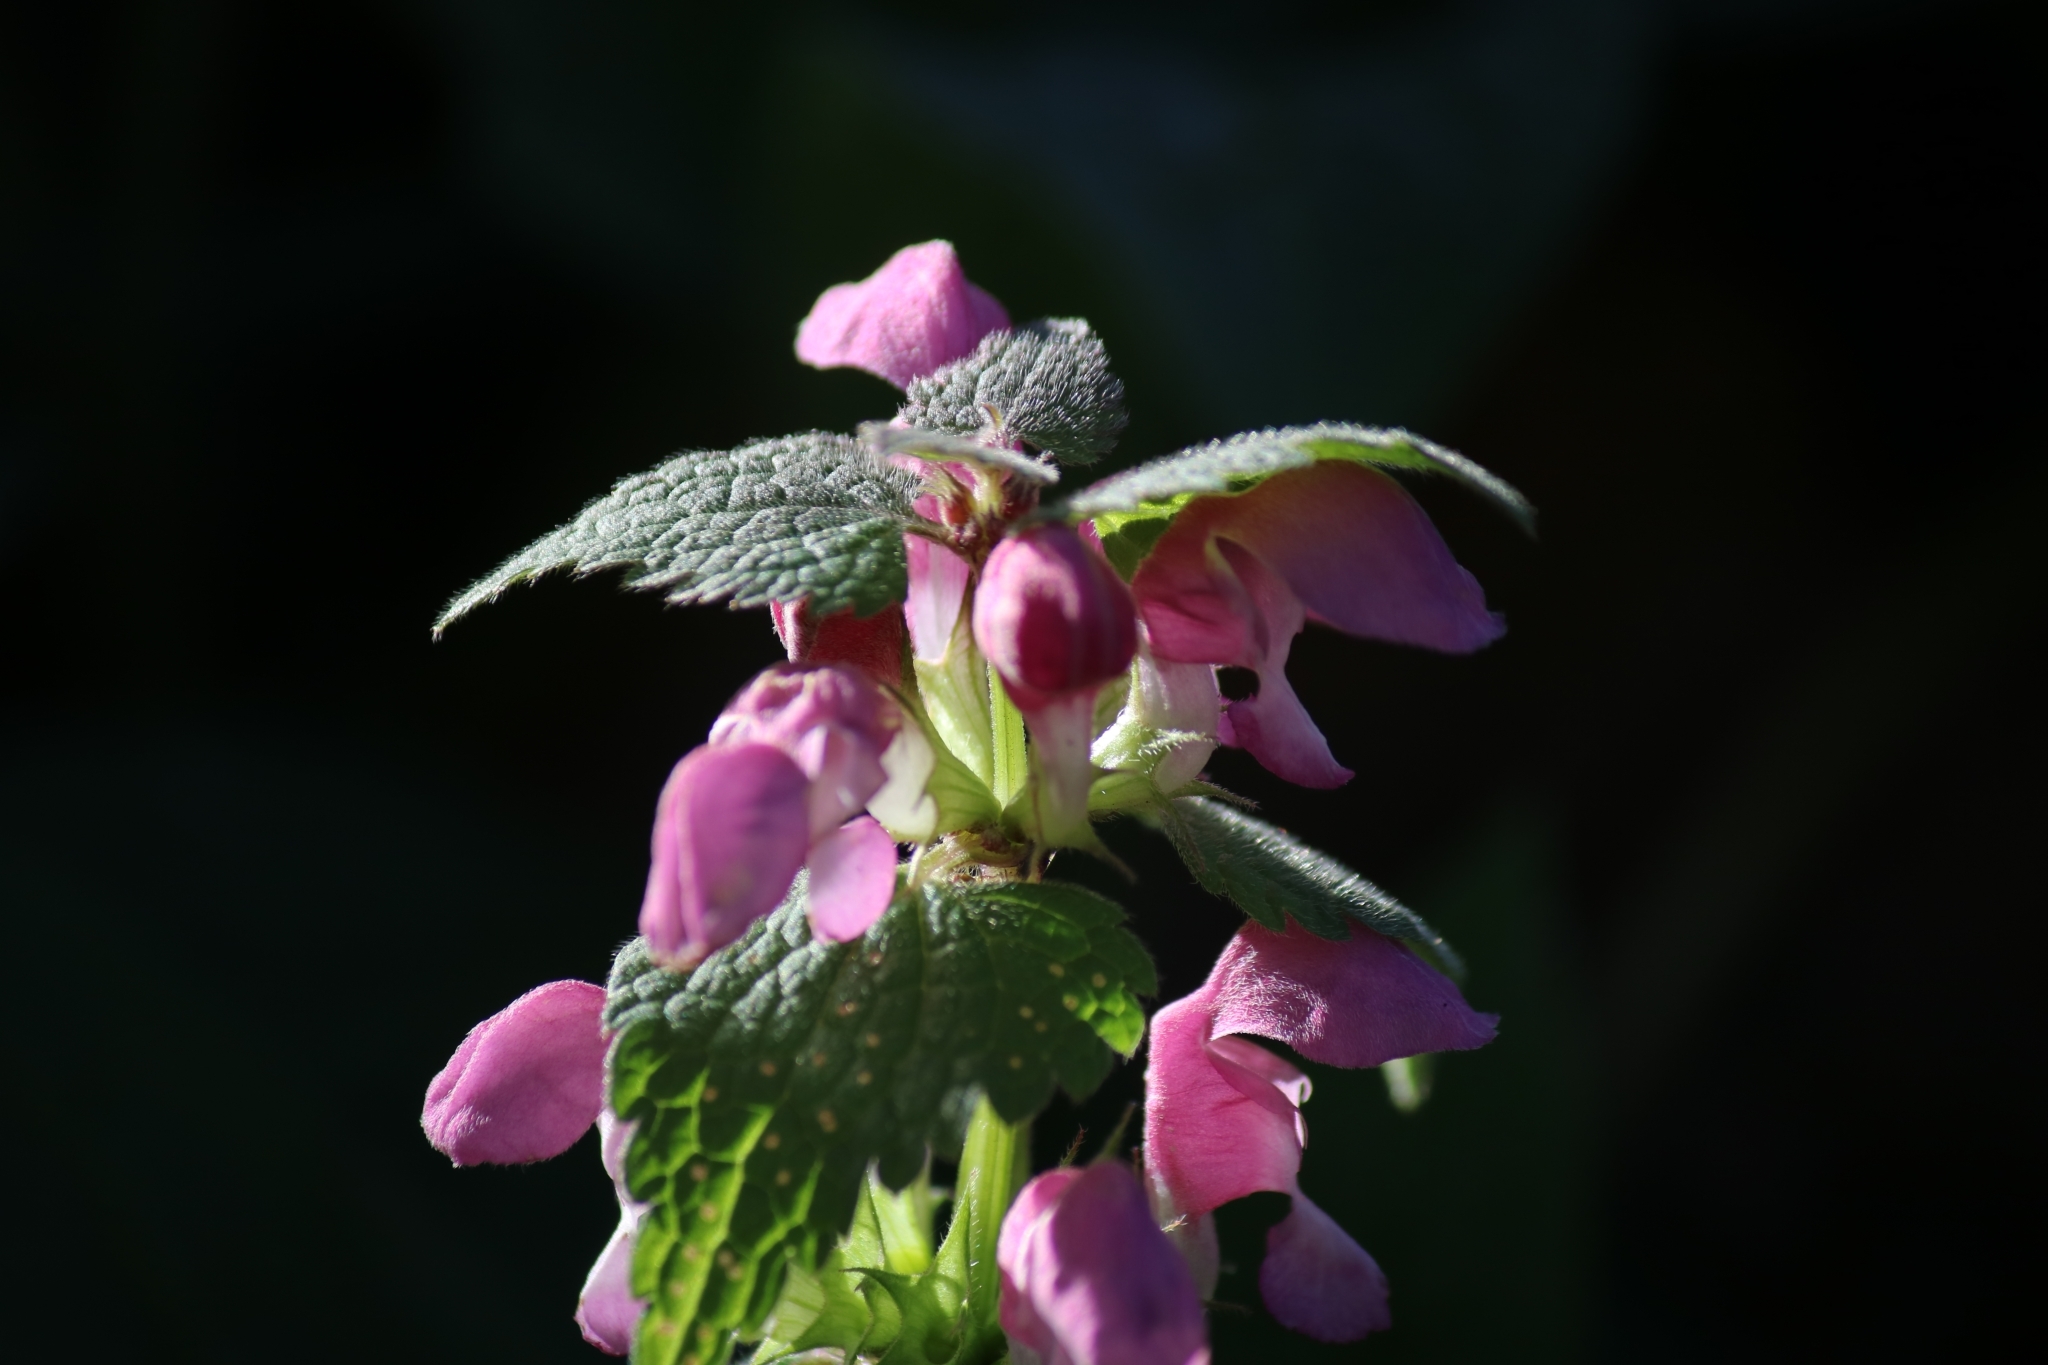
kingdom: Plantae
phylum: Tracheophyta
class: Magnoliopsida
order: Lamiales
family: Lamiaceae
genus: Lamium
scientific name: Lamium maculatum
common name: Spotted dead-nettle
